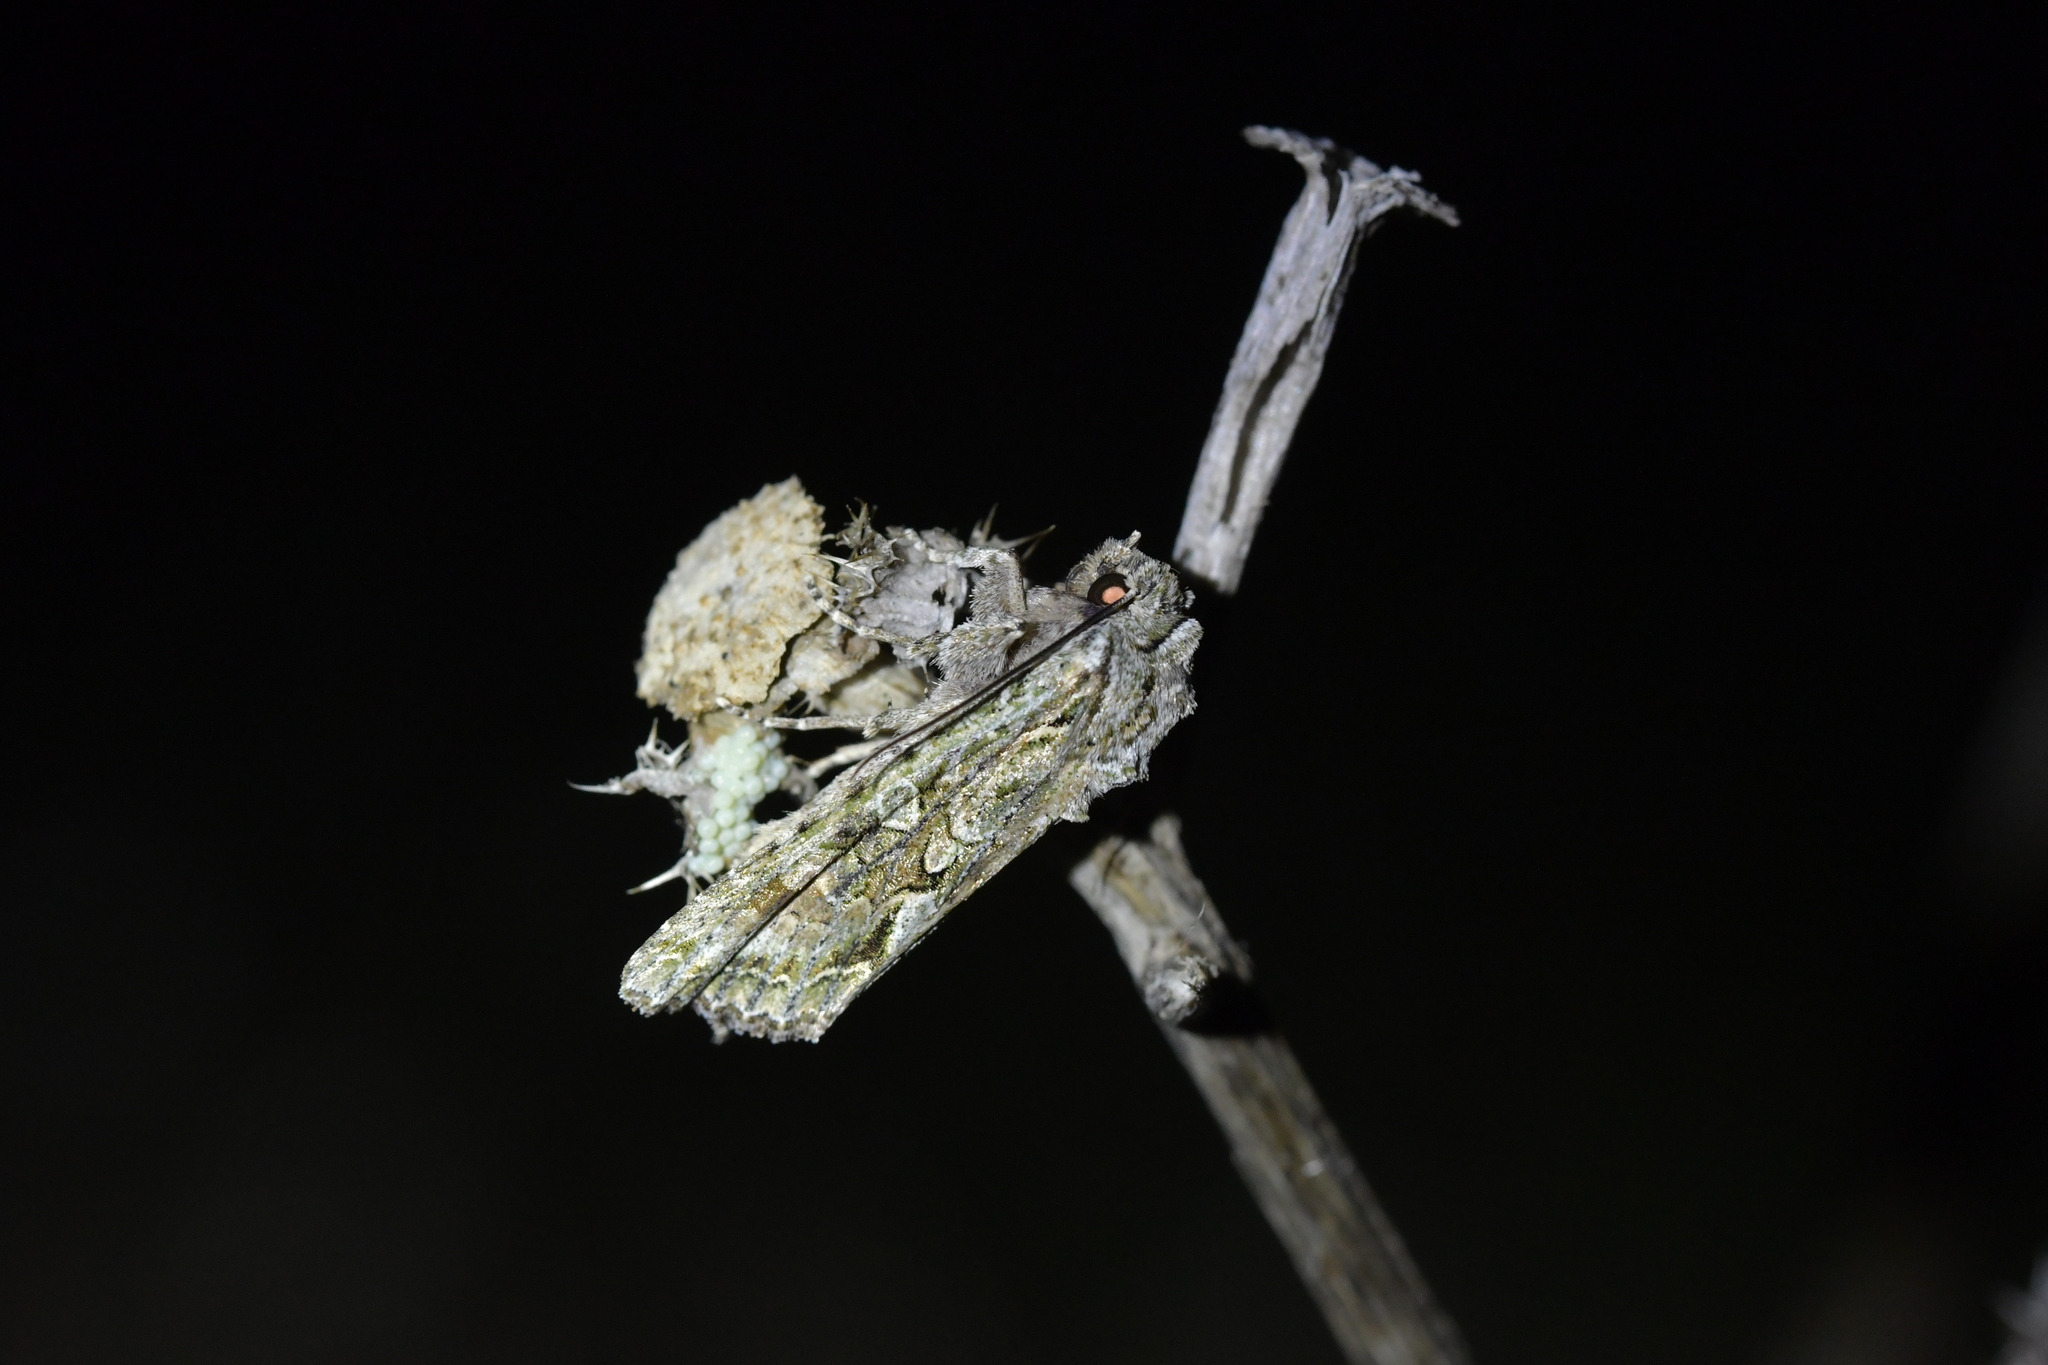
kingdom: Animalia
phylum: Arthropoda
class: Insecta
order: Lepidoptera
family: Noctuidae
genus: Ichneutica
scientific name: Ichneutica mutans
